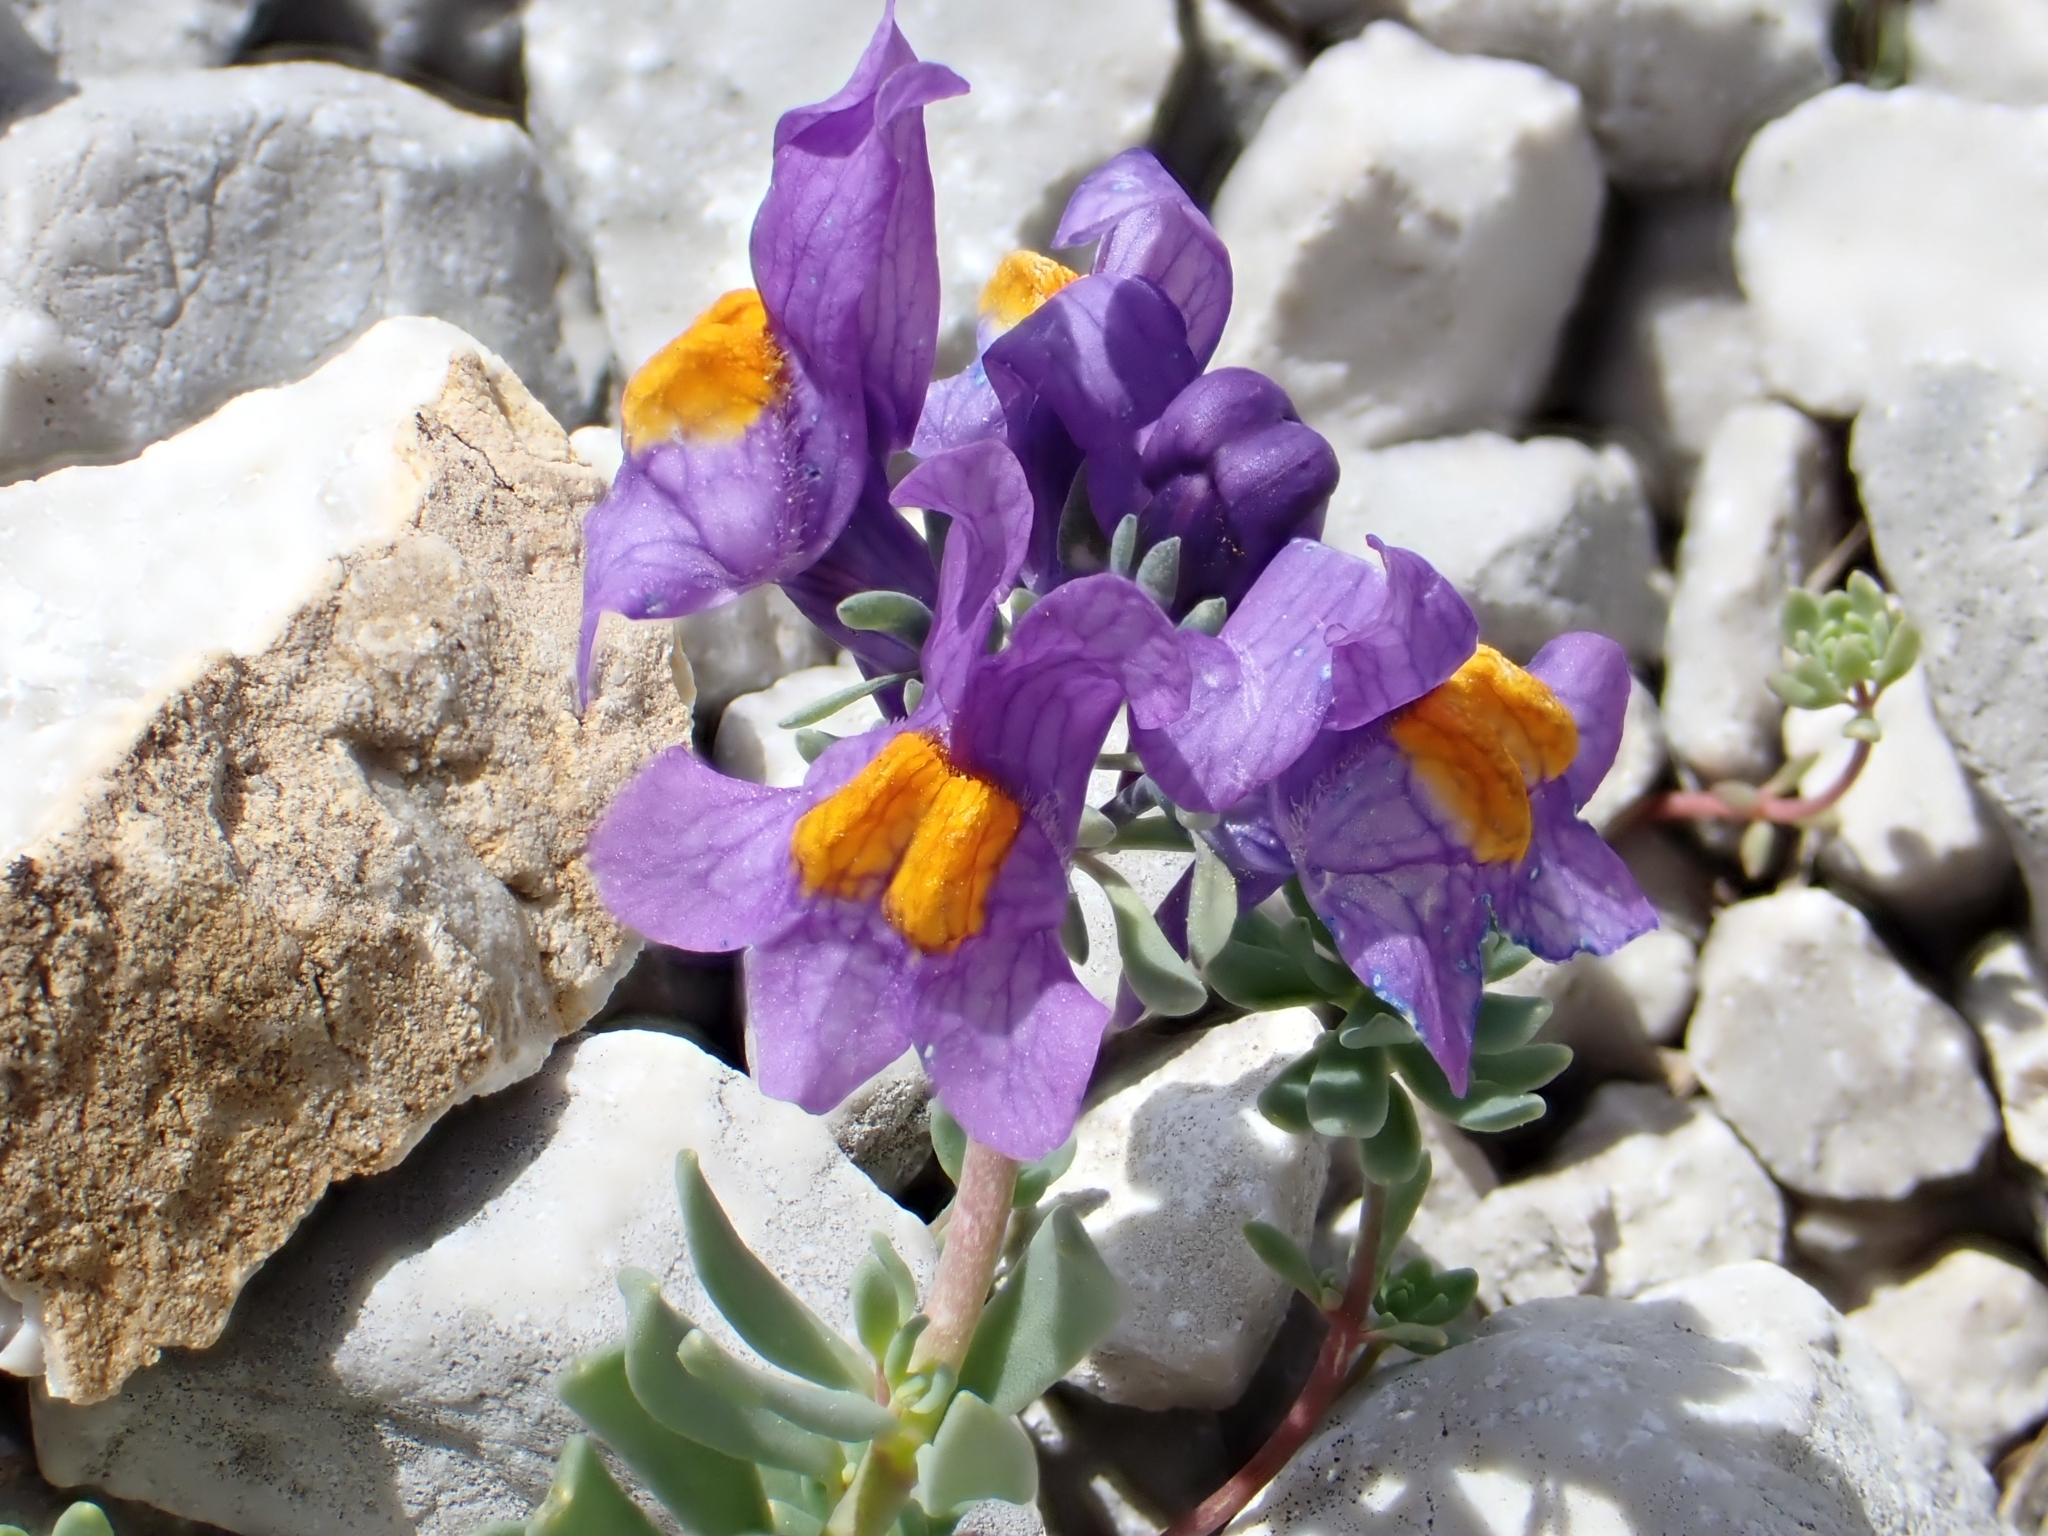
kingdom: Plantae
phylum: Tracheophyta
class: Magnoliopsida
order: Lamiales
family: Plantaginaceae
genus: Linaria
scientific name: Linaria alpina
